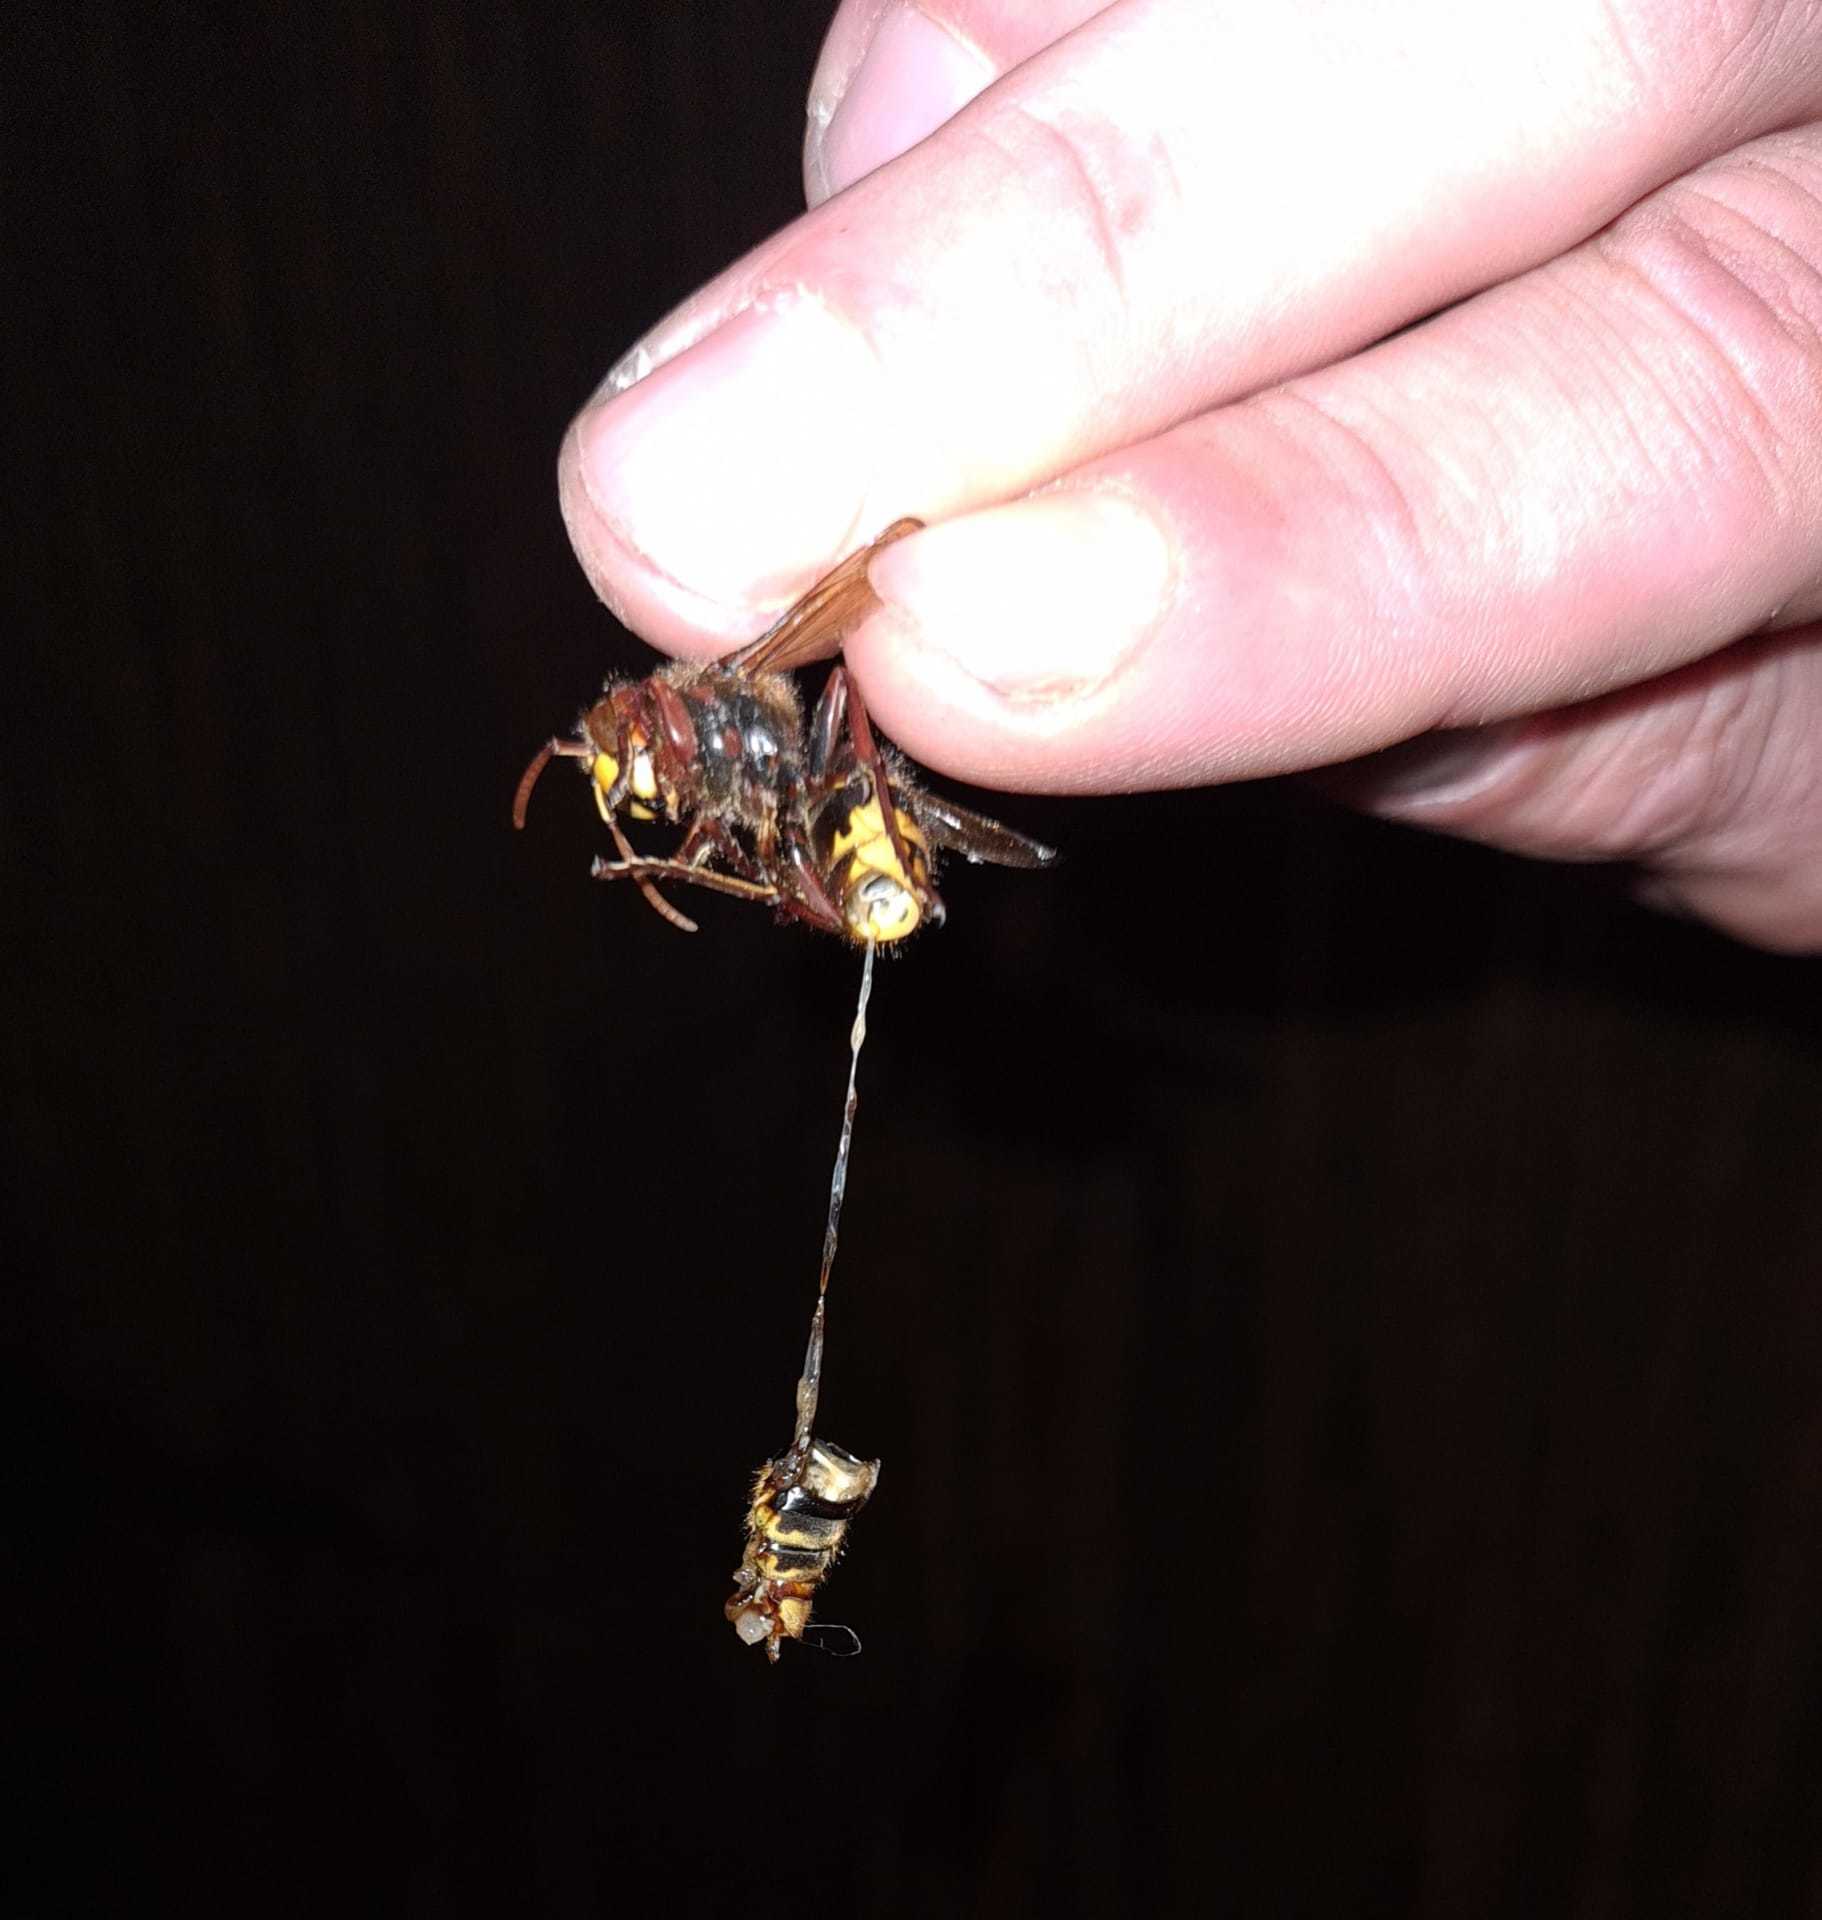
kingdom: Animalia
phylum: Arthropoda
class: Insecta
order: Hymenoptera
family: Vespidae
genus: Vespa
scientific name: Vespa crabro
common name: Hornet
